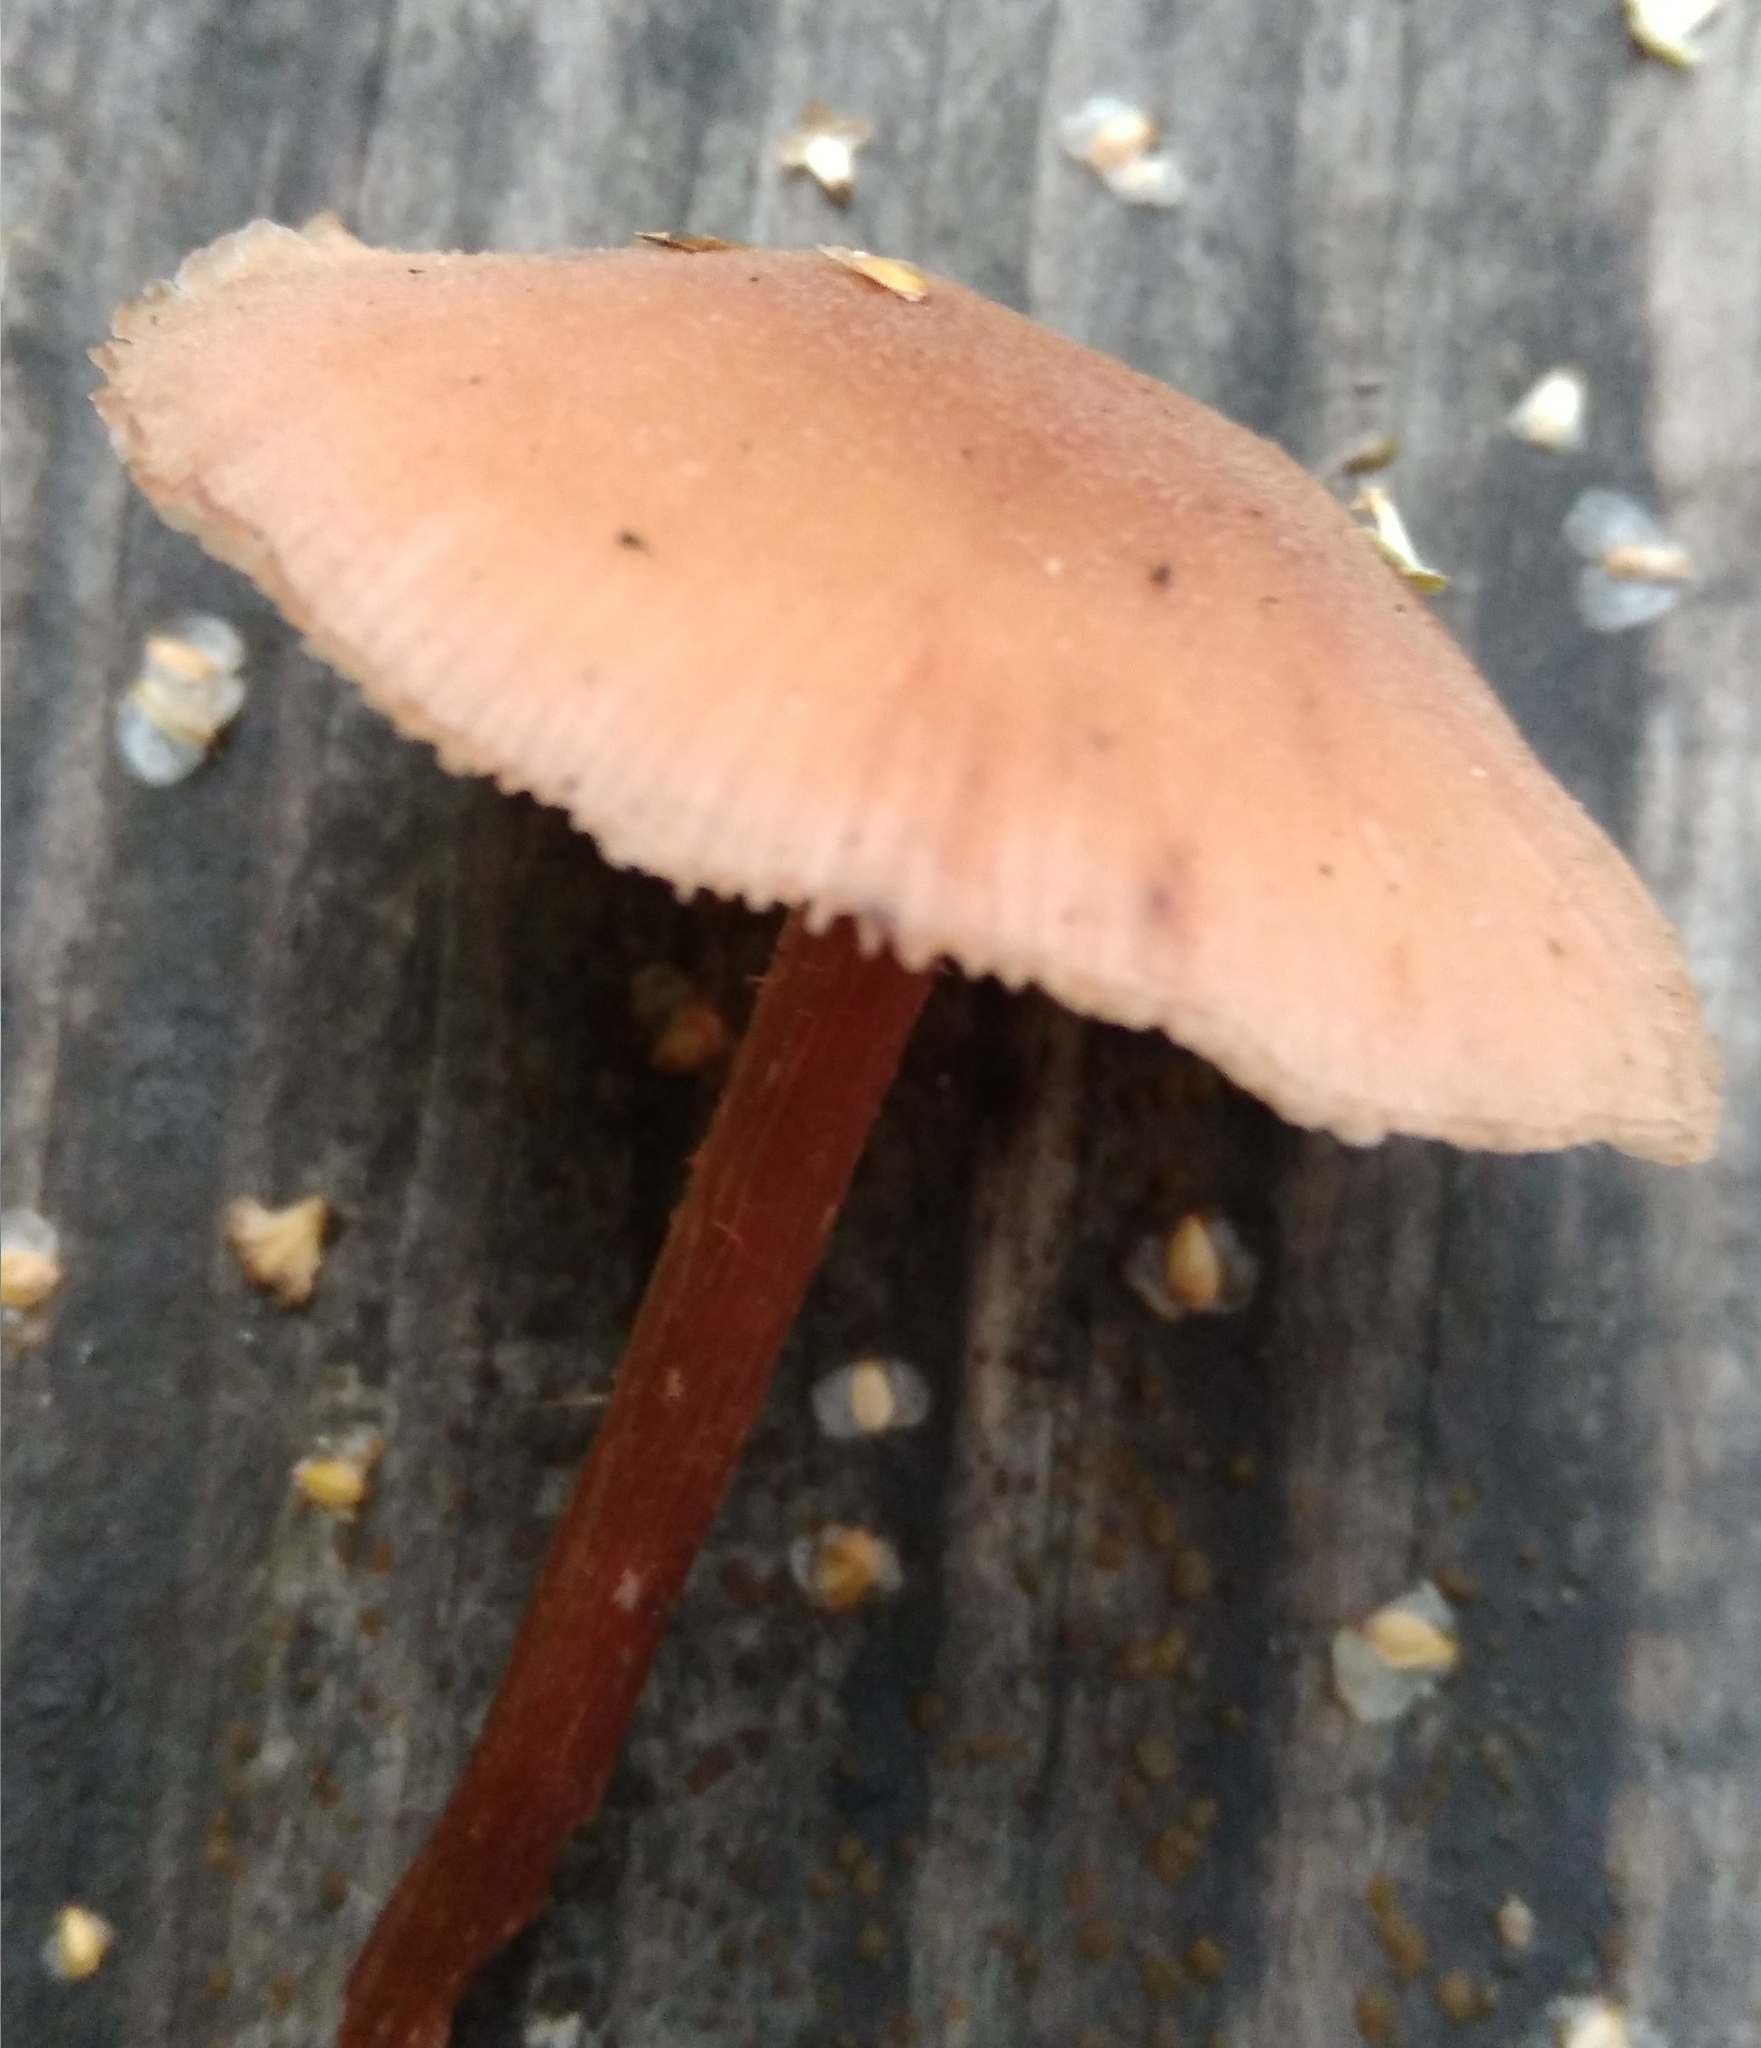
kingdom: Fungi
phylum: Basidiomycota
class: Agaricomycetes
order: Agaricales
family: Hydnangiaceae
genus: Laccaria
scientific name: Laccaria laccata
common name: Deceiver
